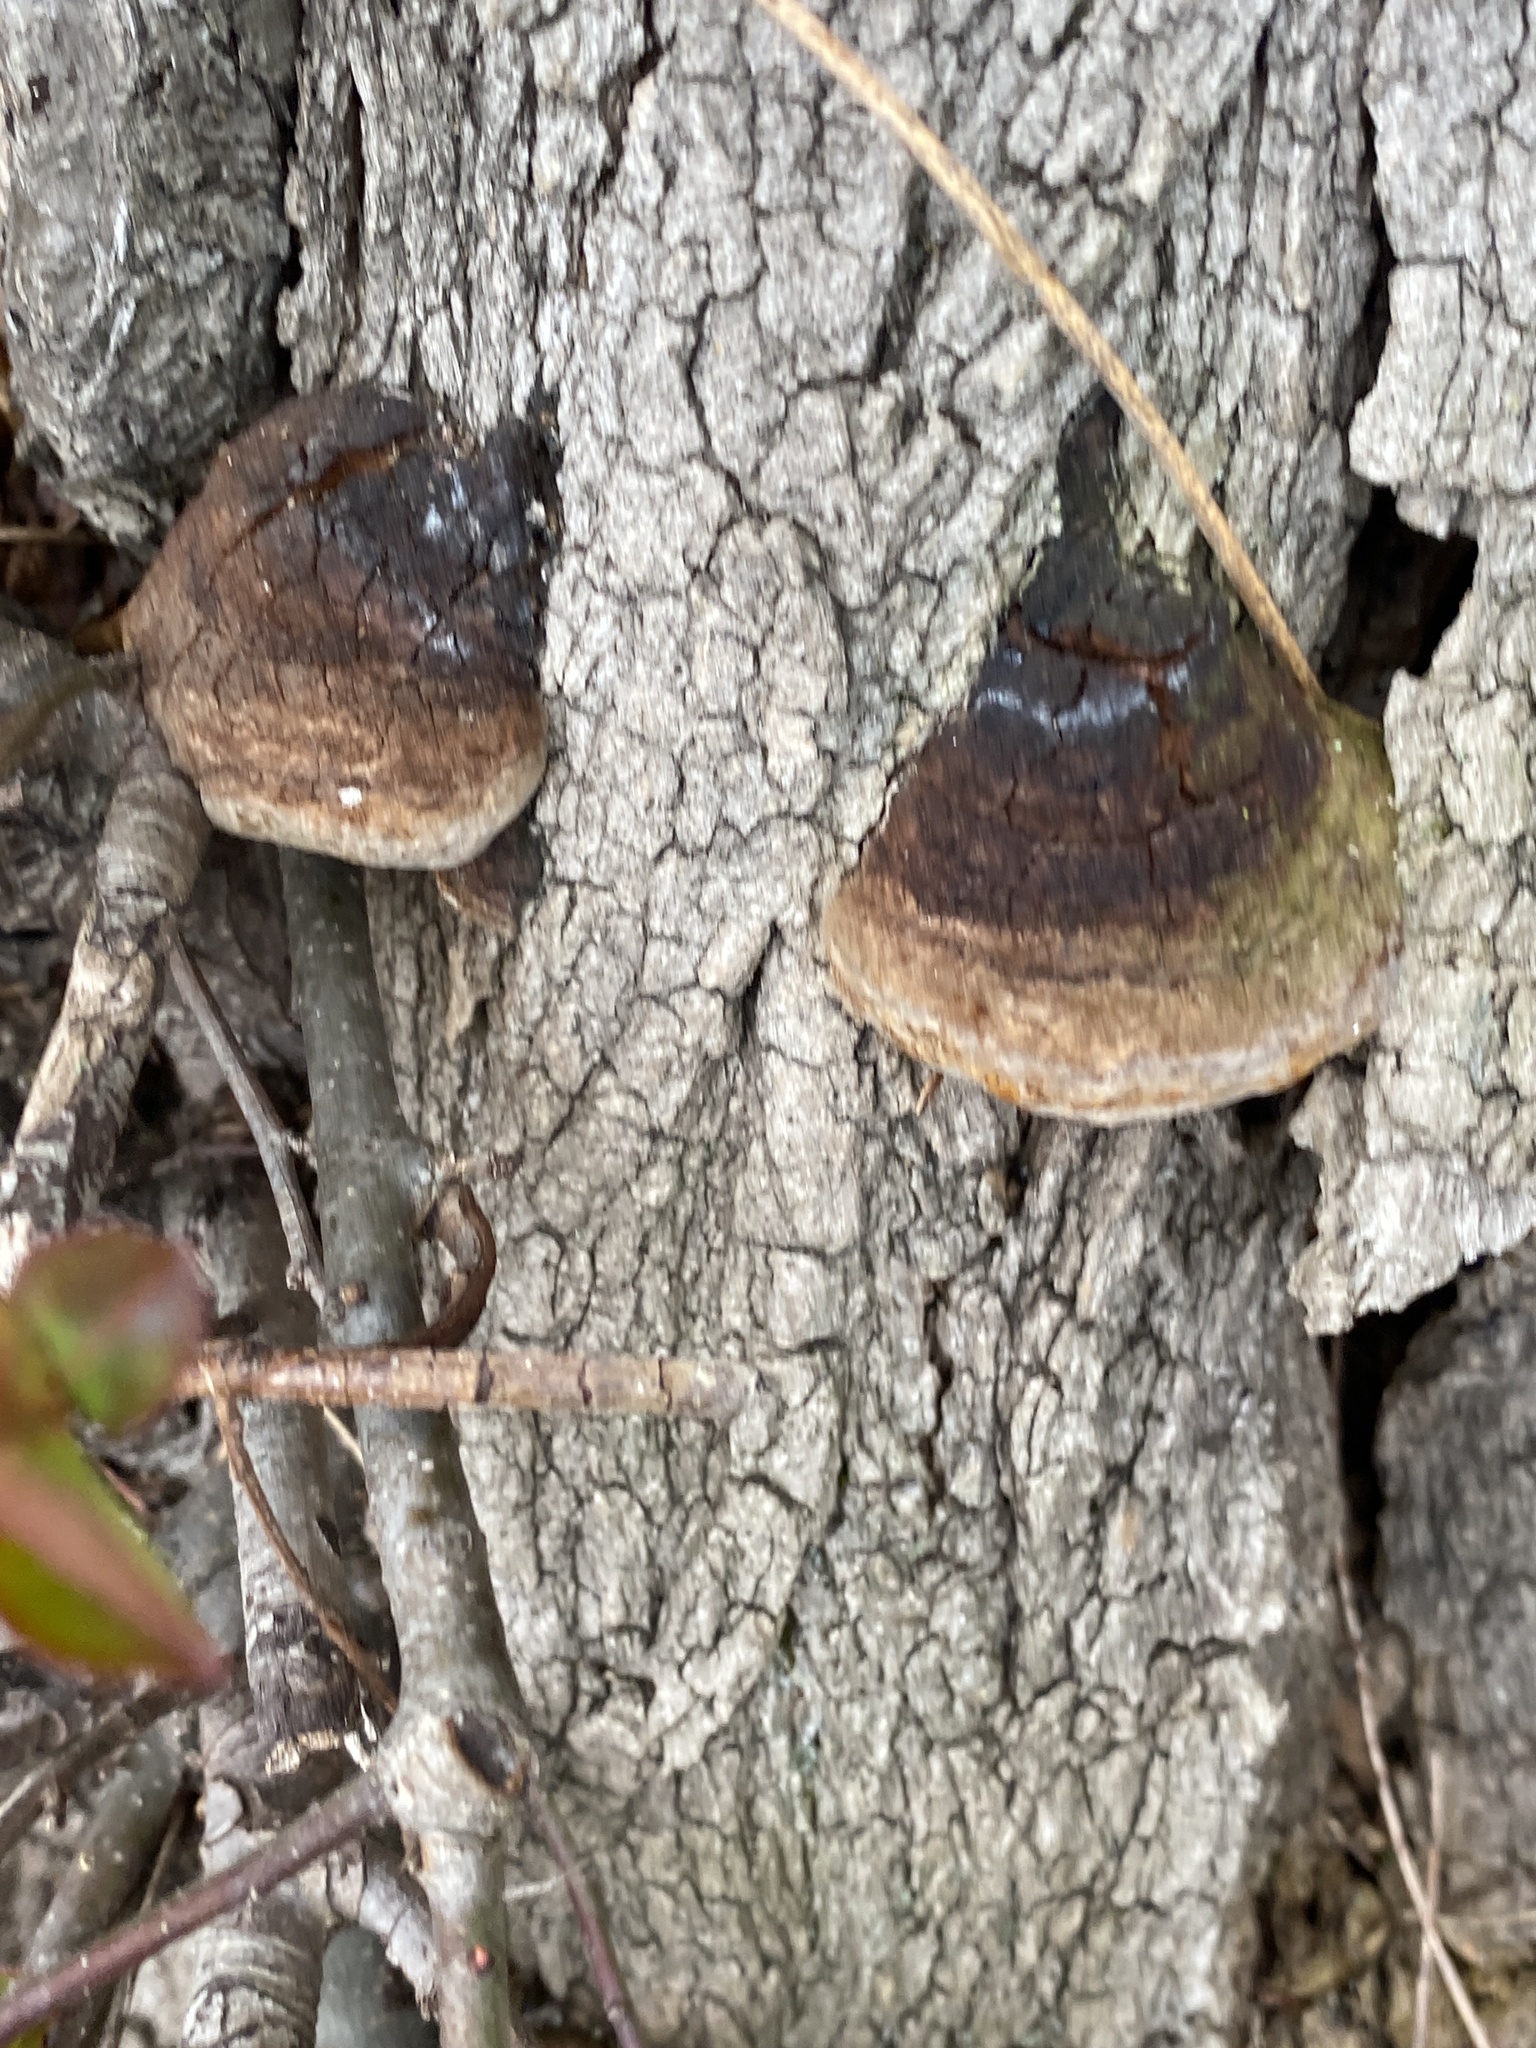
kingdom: Fungi
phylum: Basidiomycota
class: Agaricomycetes
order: Hymenochaetales
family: Hymenochaetaceae
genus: Phellinus
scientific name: Phellinus robiniae
